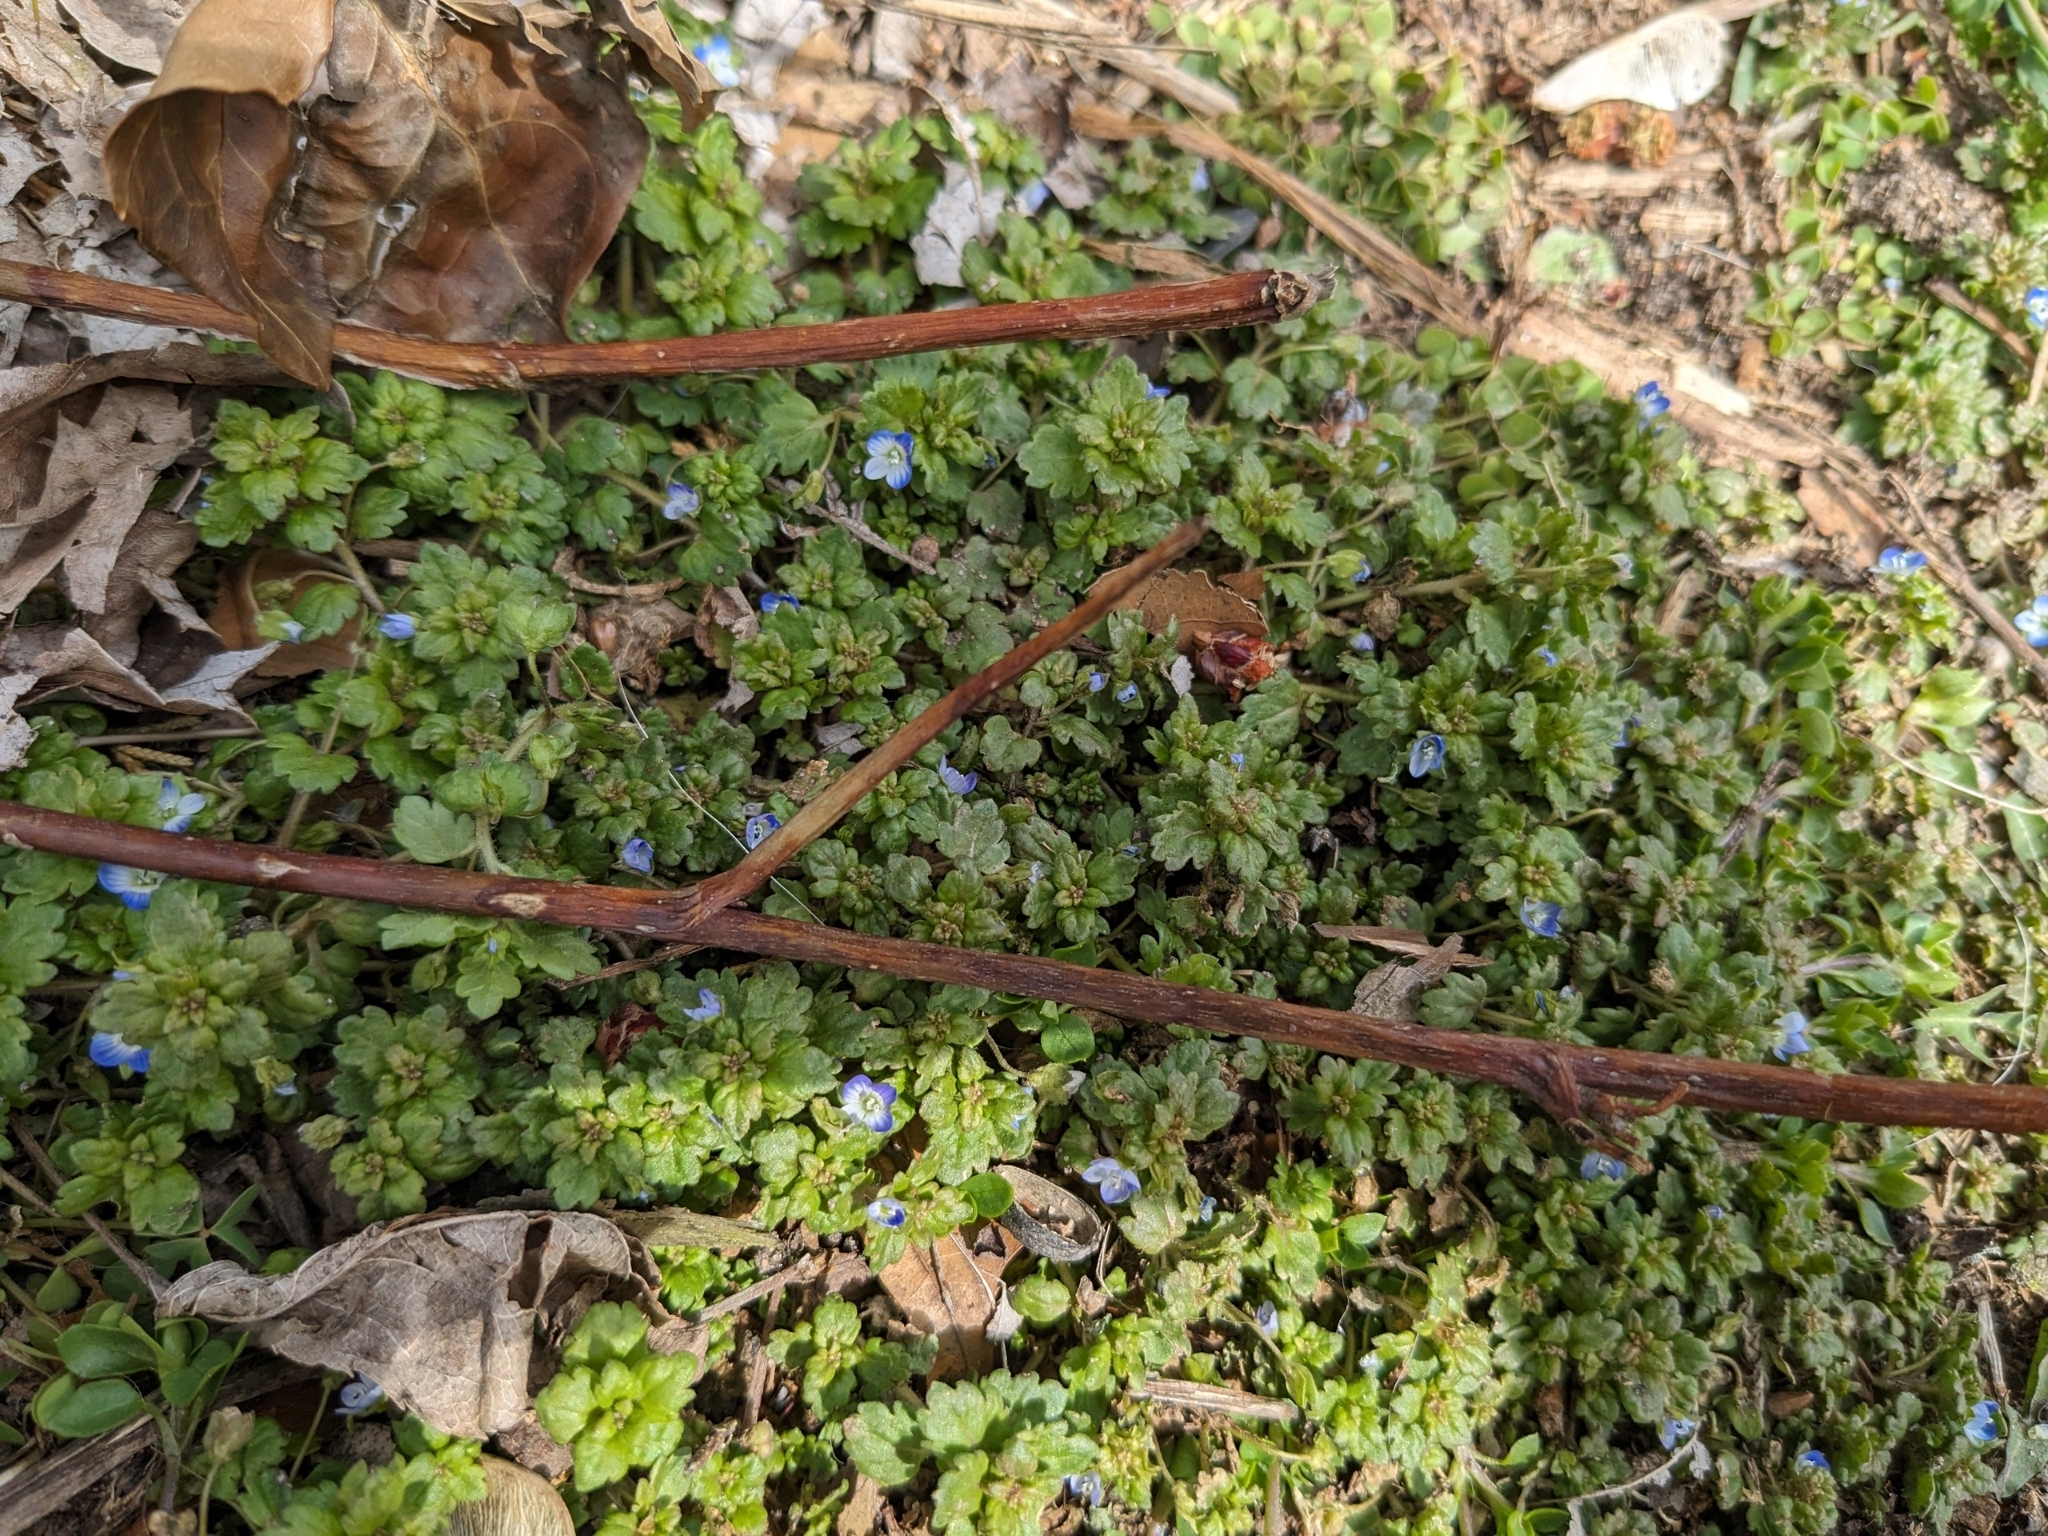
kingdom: Plantae
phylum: Tracheophyta
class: Magnoliopsida
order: Lamiales
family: Plantaginaceae
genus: Veronica
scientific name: Veronica polita
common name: Grey field-speedwell
